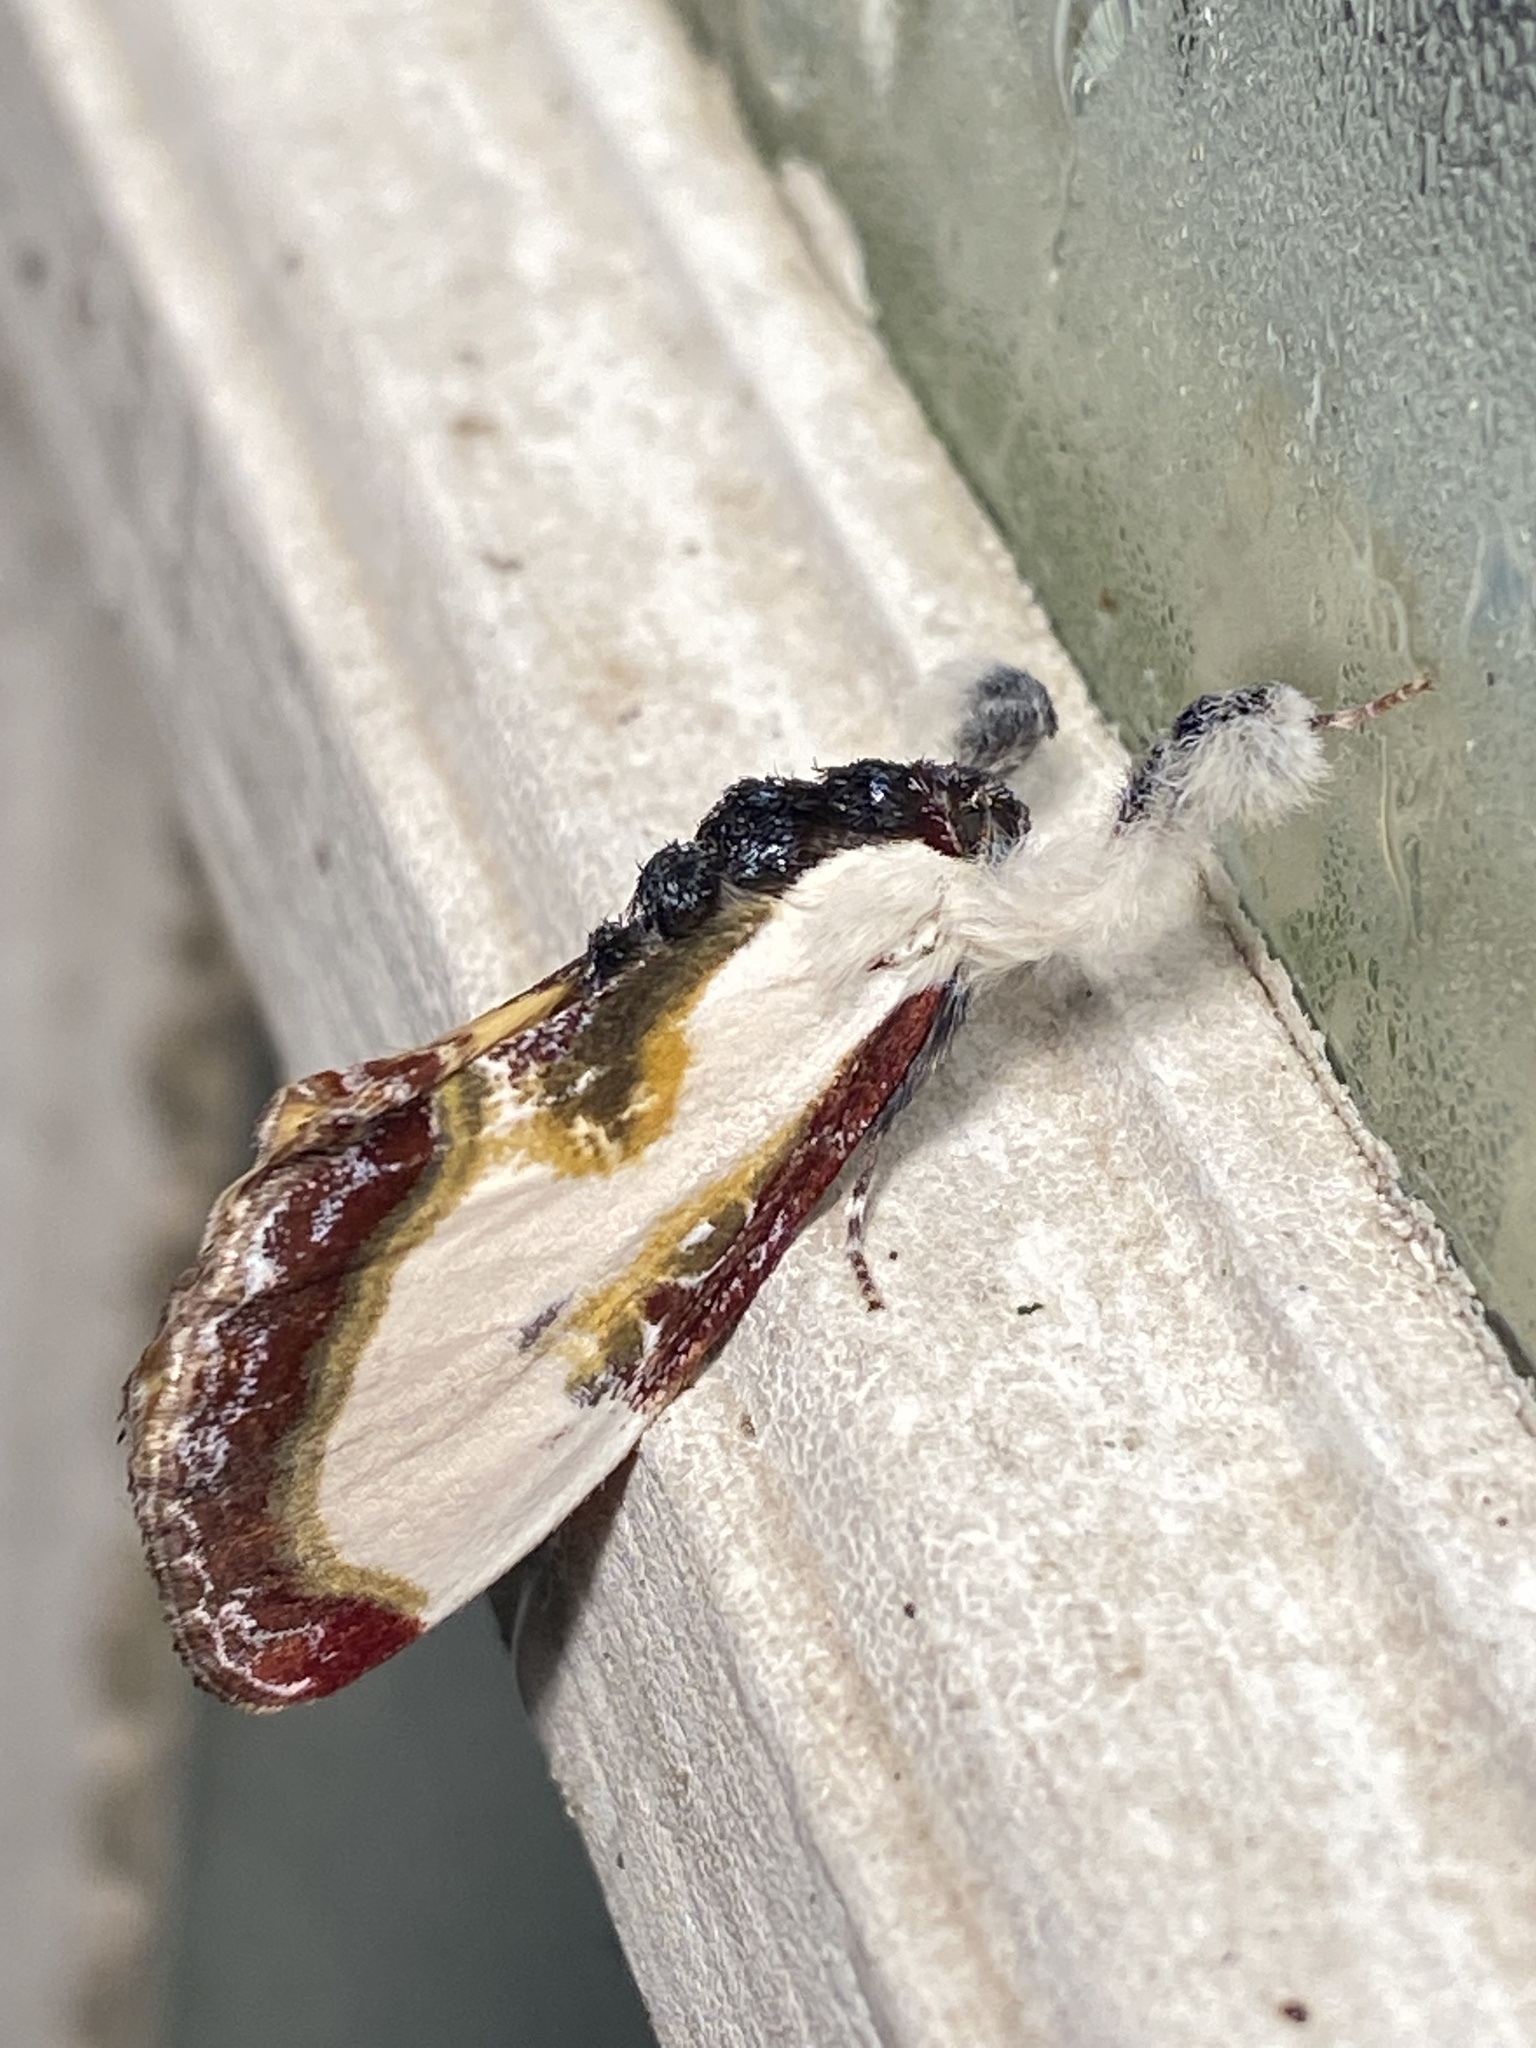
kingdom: Animalia
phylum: Arthropoda
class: Insecta
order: Lepidoptera
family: Noctuidae
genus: Eudryas
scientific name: Eudryas grata
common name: Beautiful wood-nymph
